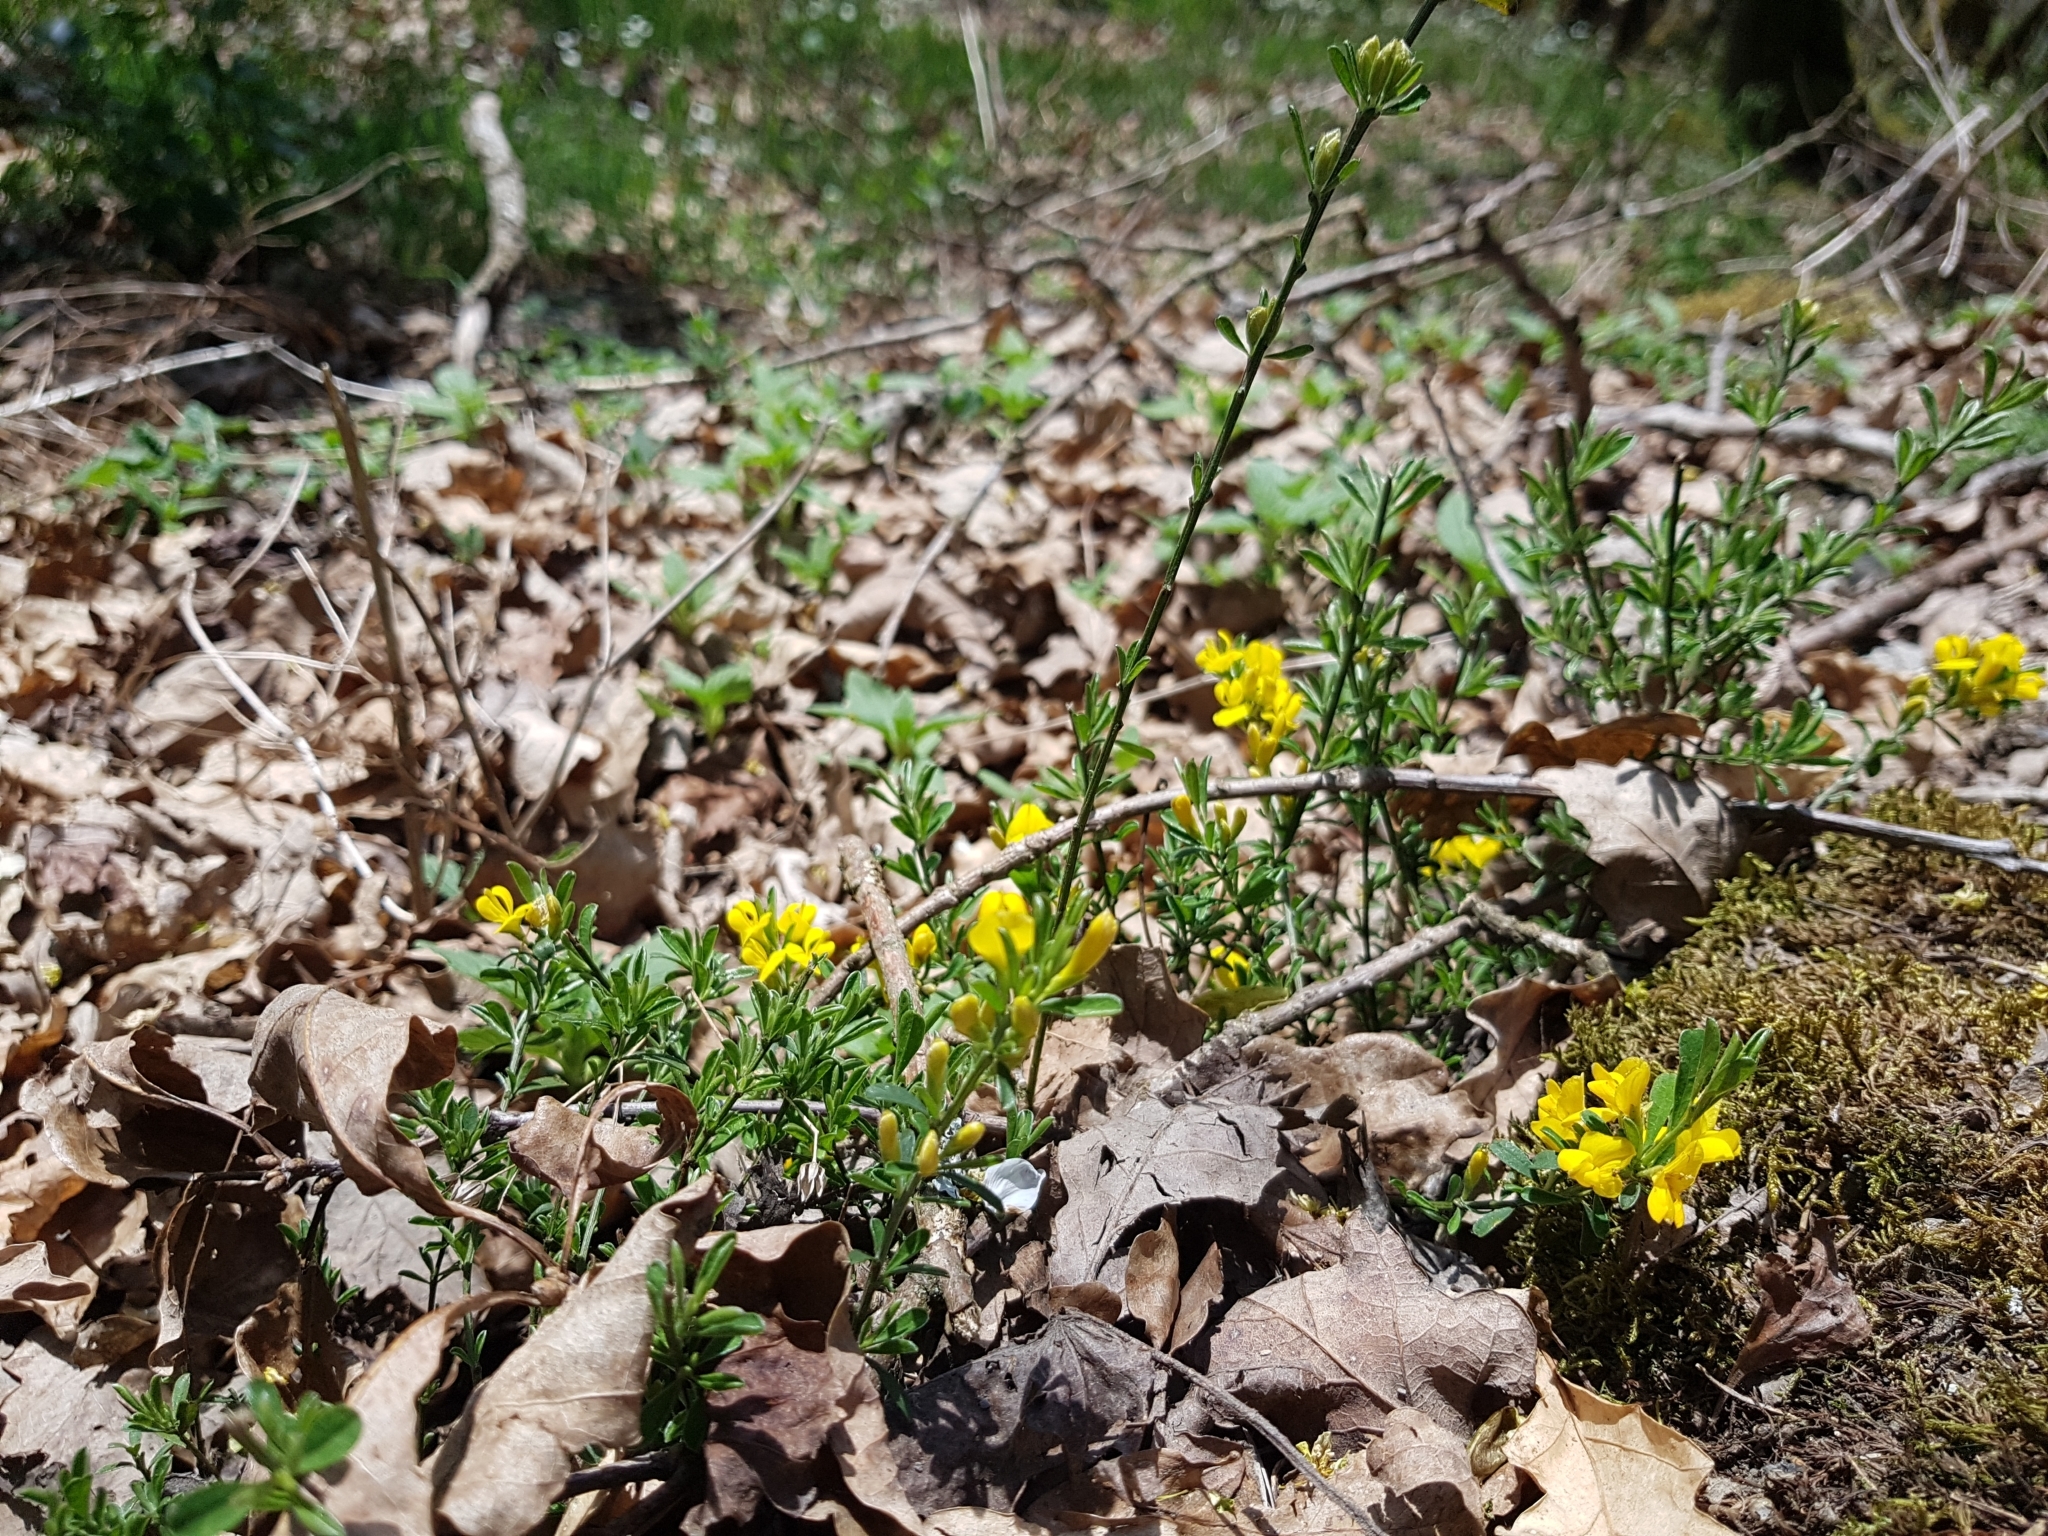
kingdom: Plantae
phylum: Tracheophyta
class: Magnoliopsida
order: Fabales
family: Fabaceae
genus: Genista
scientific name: Genista pilosa
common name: Hairy greenweed
